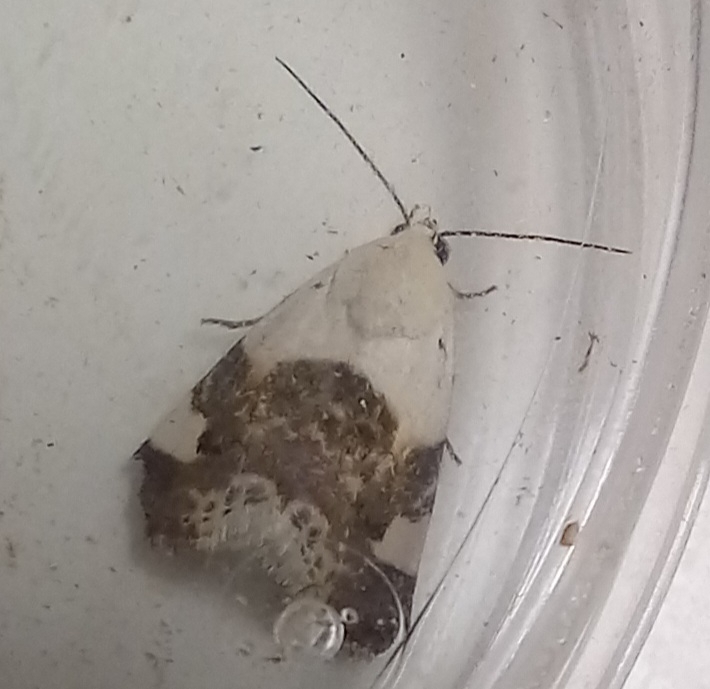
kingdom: Animalia
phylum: Arthropoda
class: Insecta
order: Lepidoptera
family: Noctuidae
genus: Acontia
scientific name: Acontia lucida
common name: Pale shoulder
